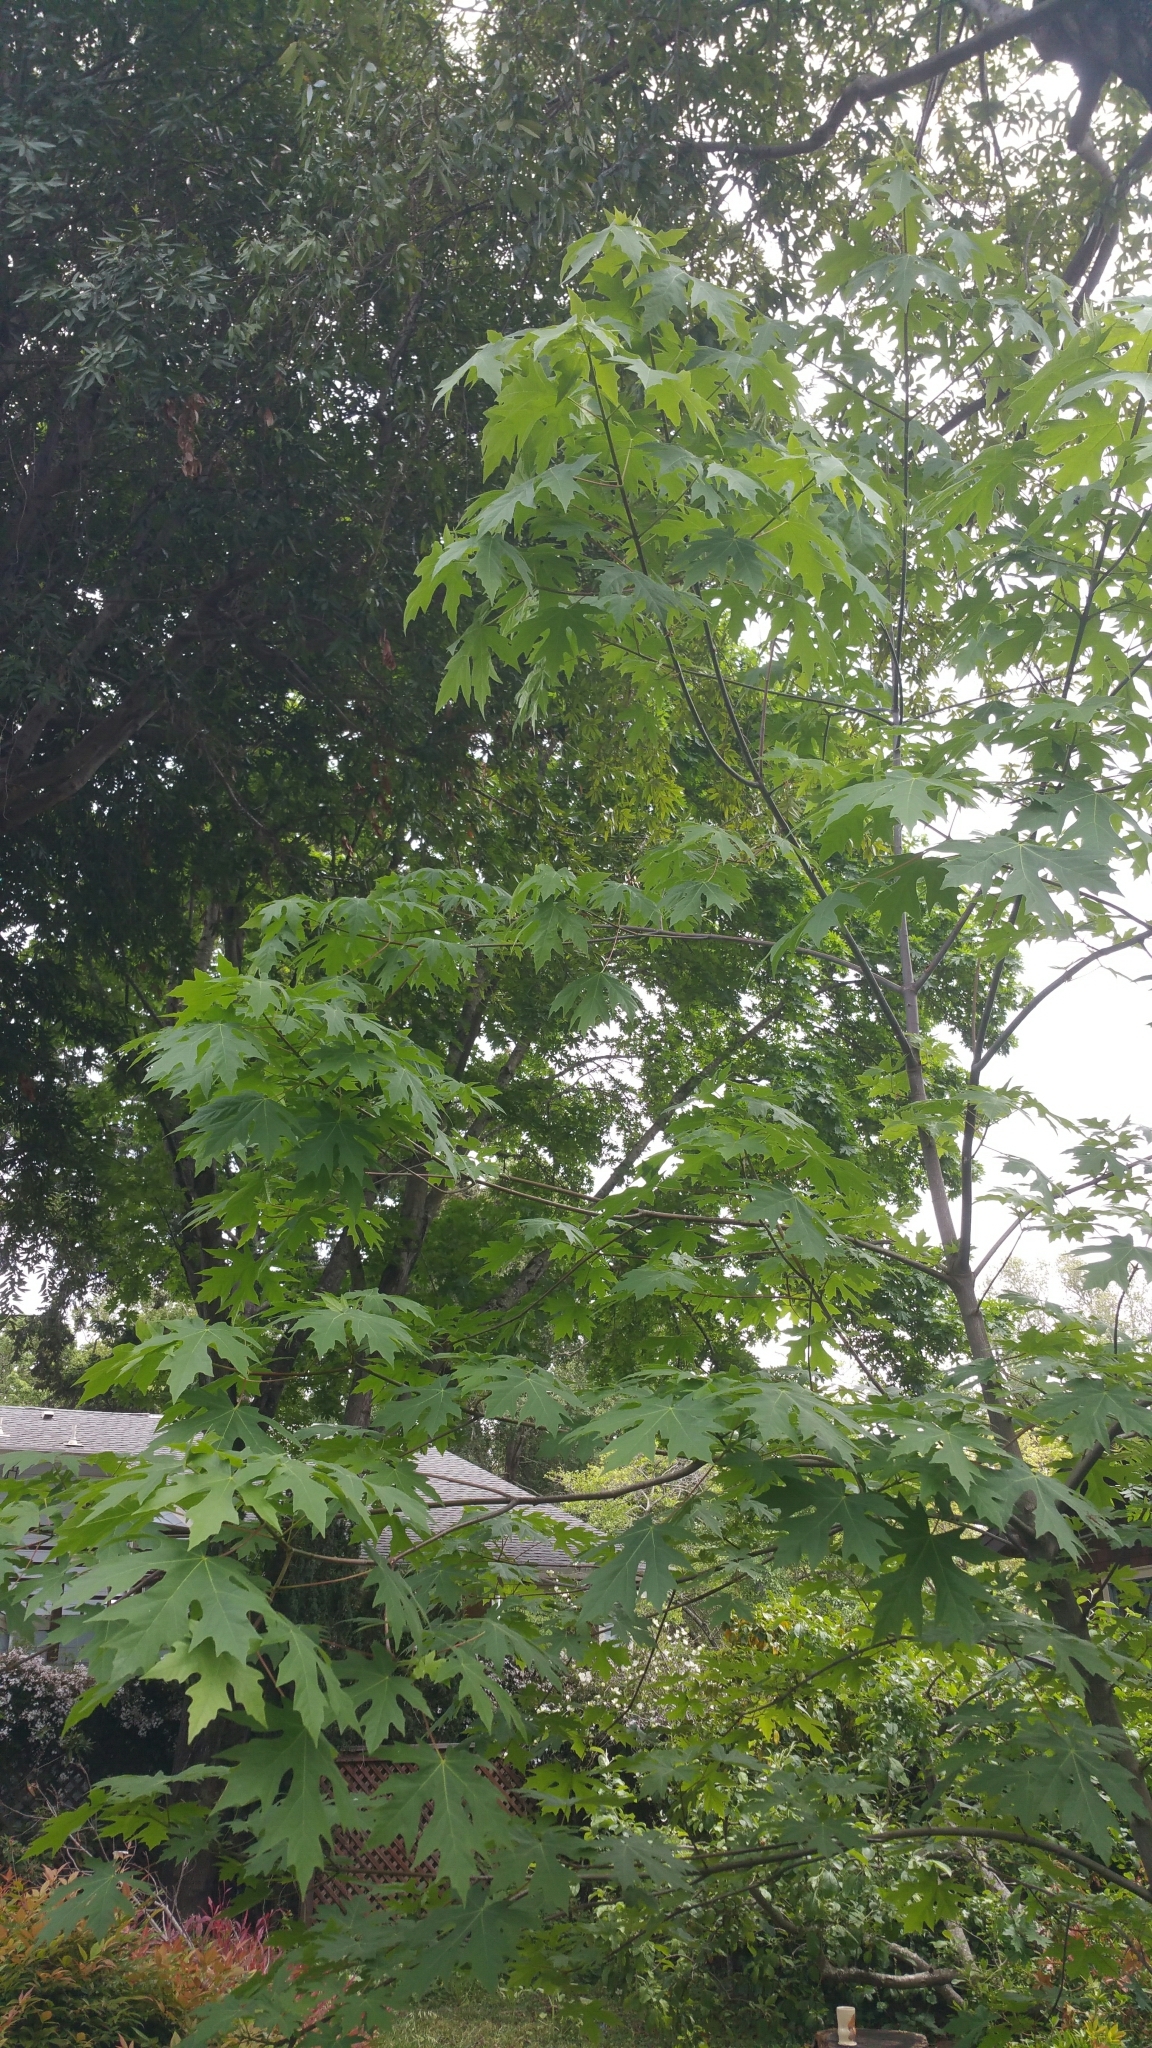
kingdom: Plantae
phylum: Tracheophyta
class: Magnoliopsida
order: Sapindales
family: Sapindaceae
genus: Acer
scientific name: Acer macrophyllum
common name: Oregon maple
